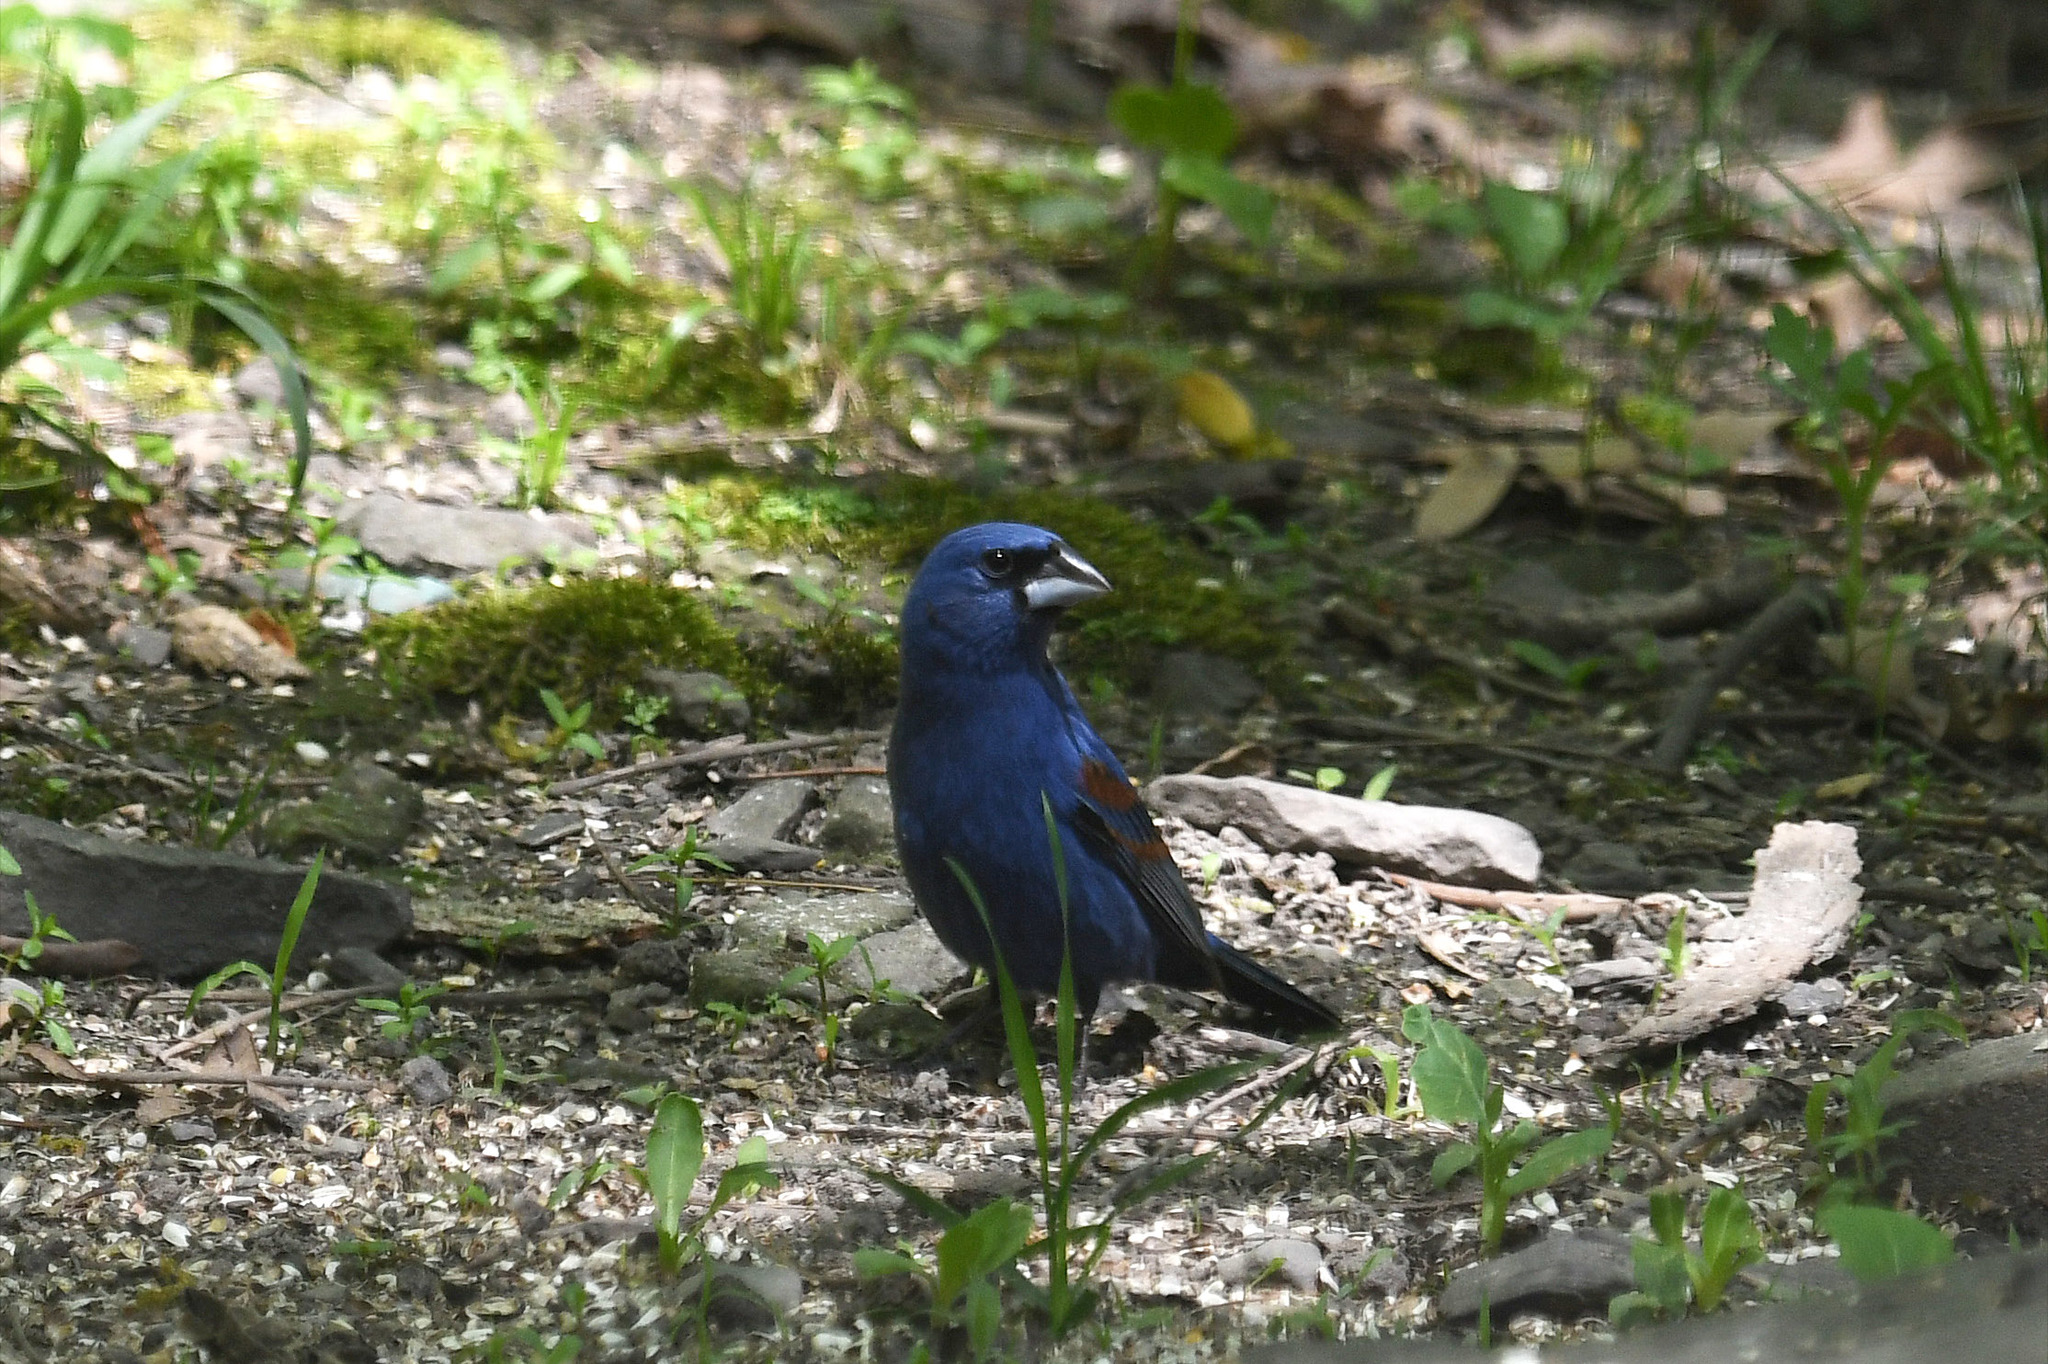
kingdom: Animalia
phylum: Chordata
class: Aves
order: Passeriformes
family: Cardinalidae
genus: Passerina
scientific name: Passerina caerulea
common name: Blue grosbeak
